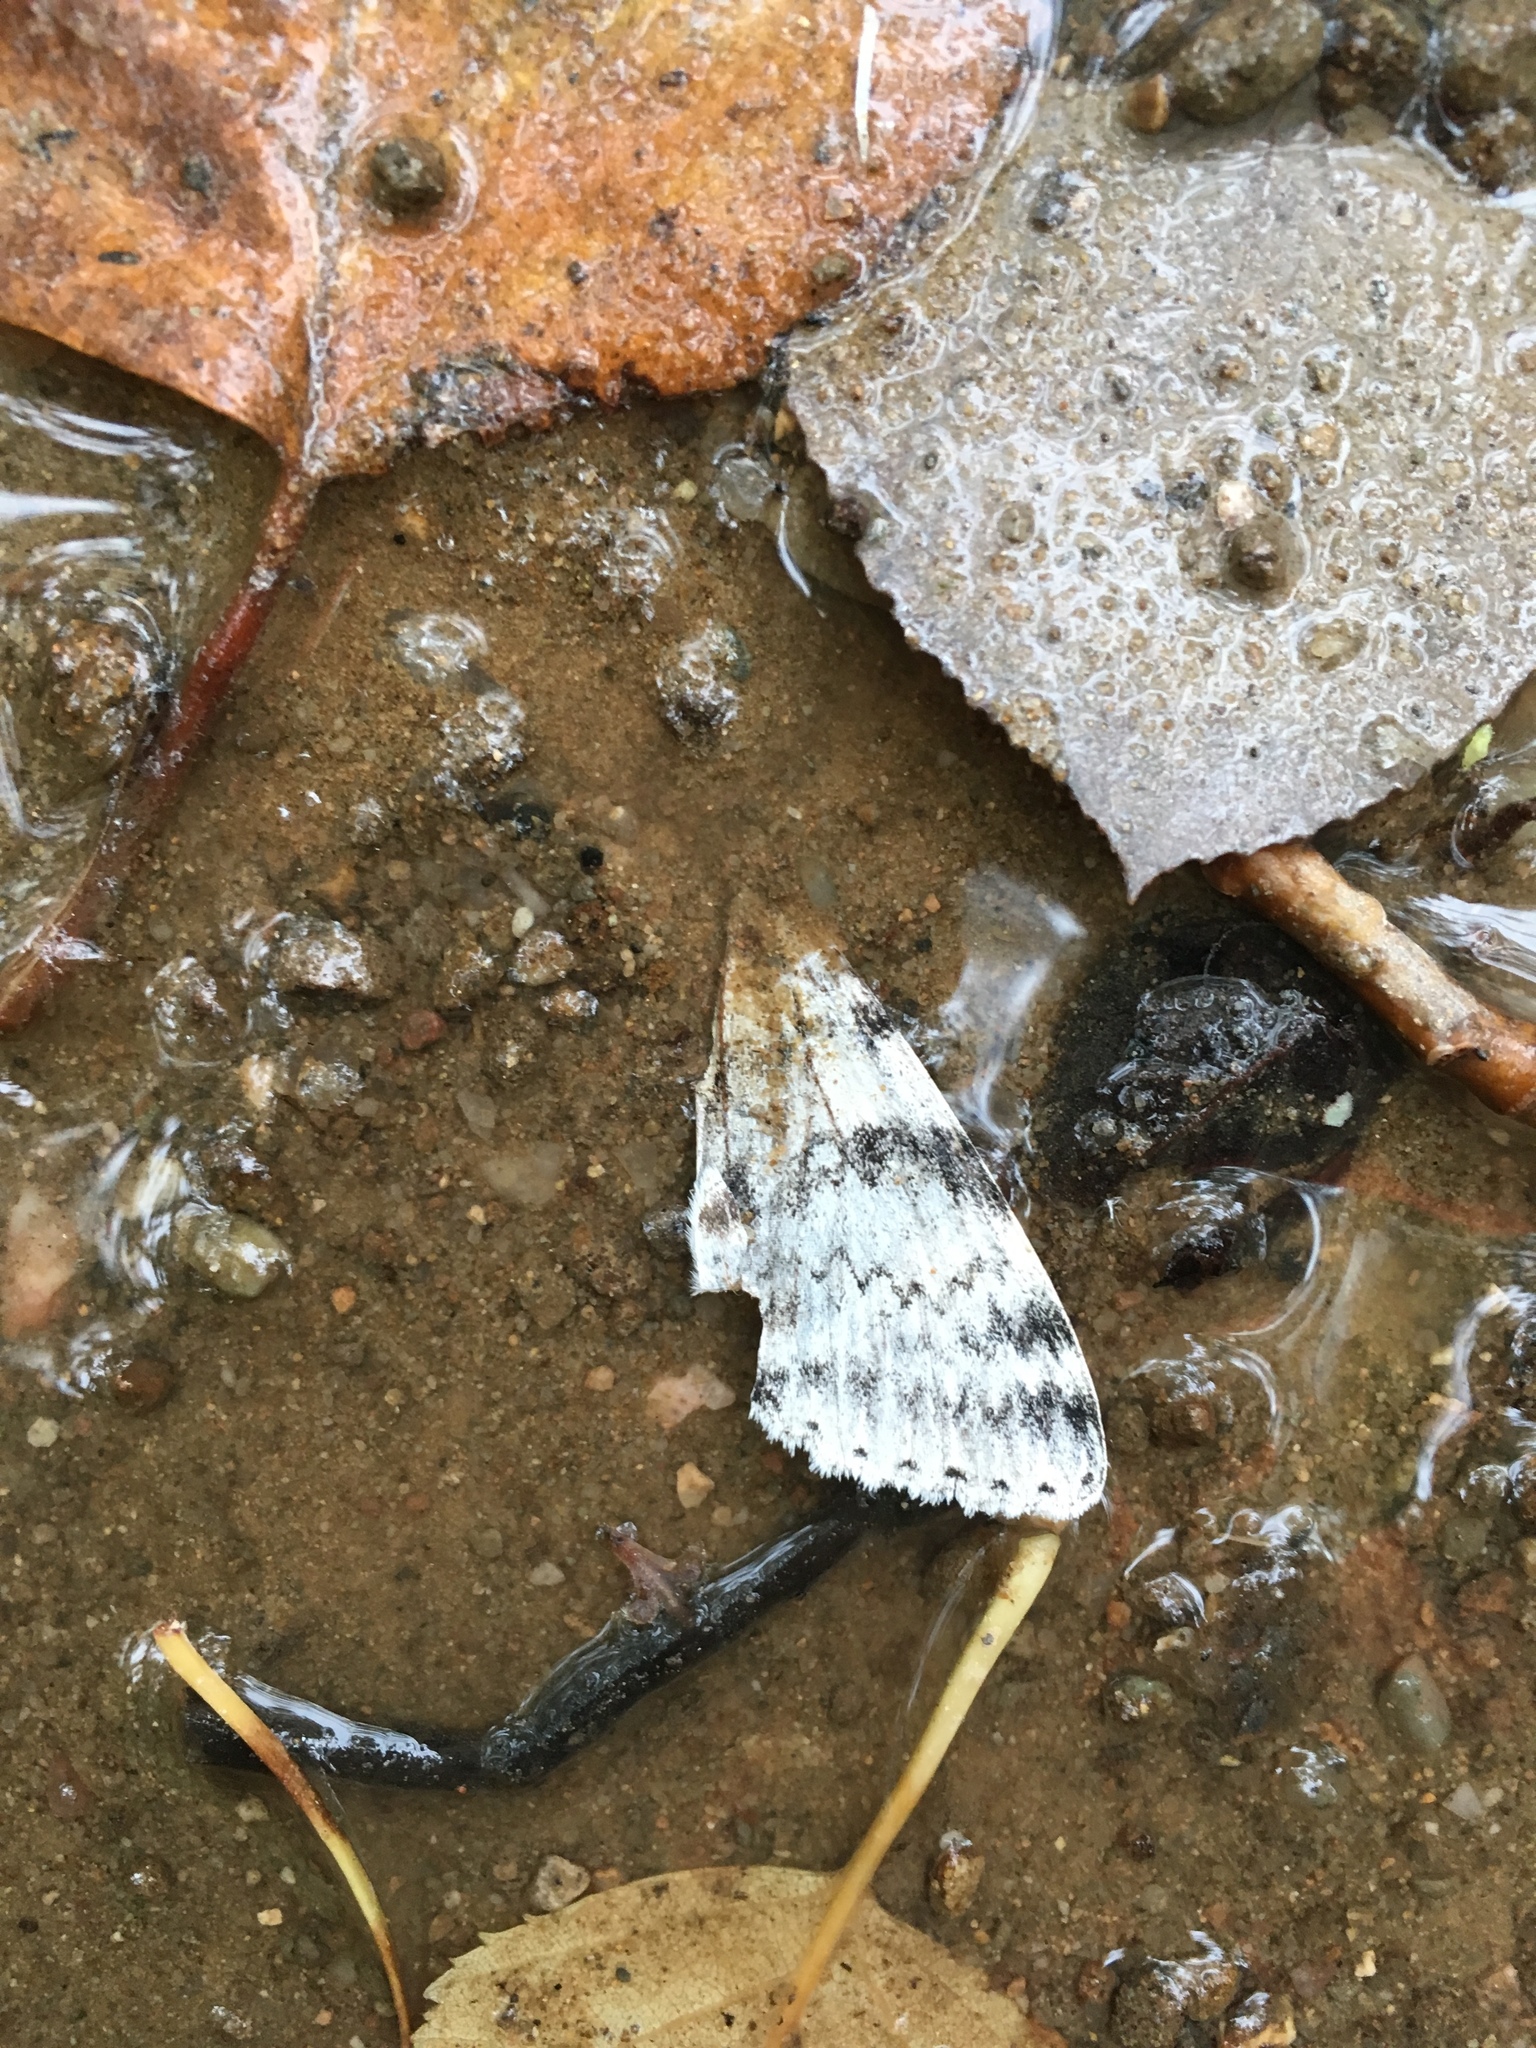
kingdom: Animalia
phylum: Arthropoda
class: Insecta
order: Lepidoptera
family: Erebidae
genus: Catocala
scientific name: Catocala relicta
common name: White underwing
